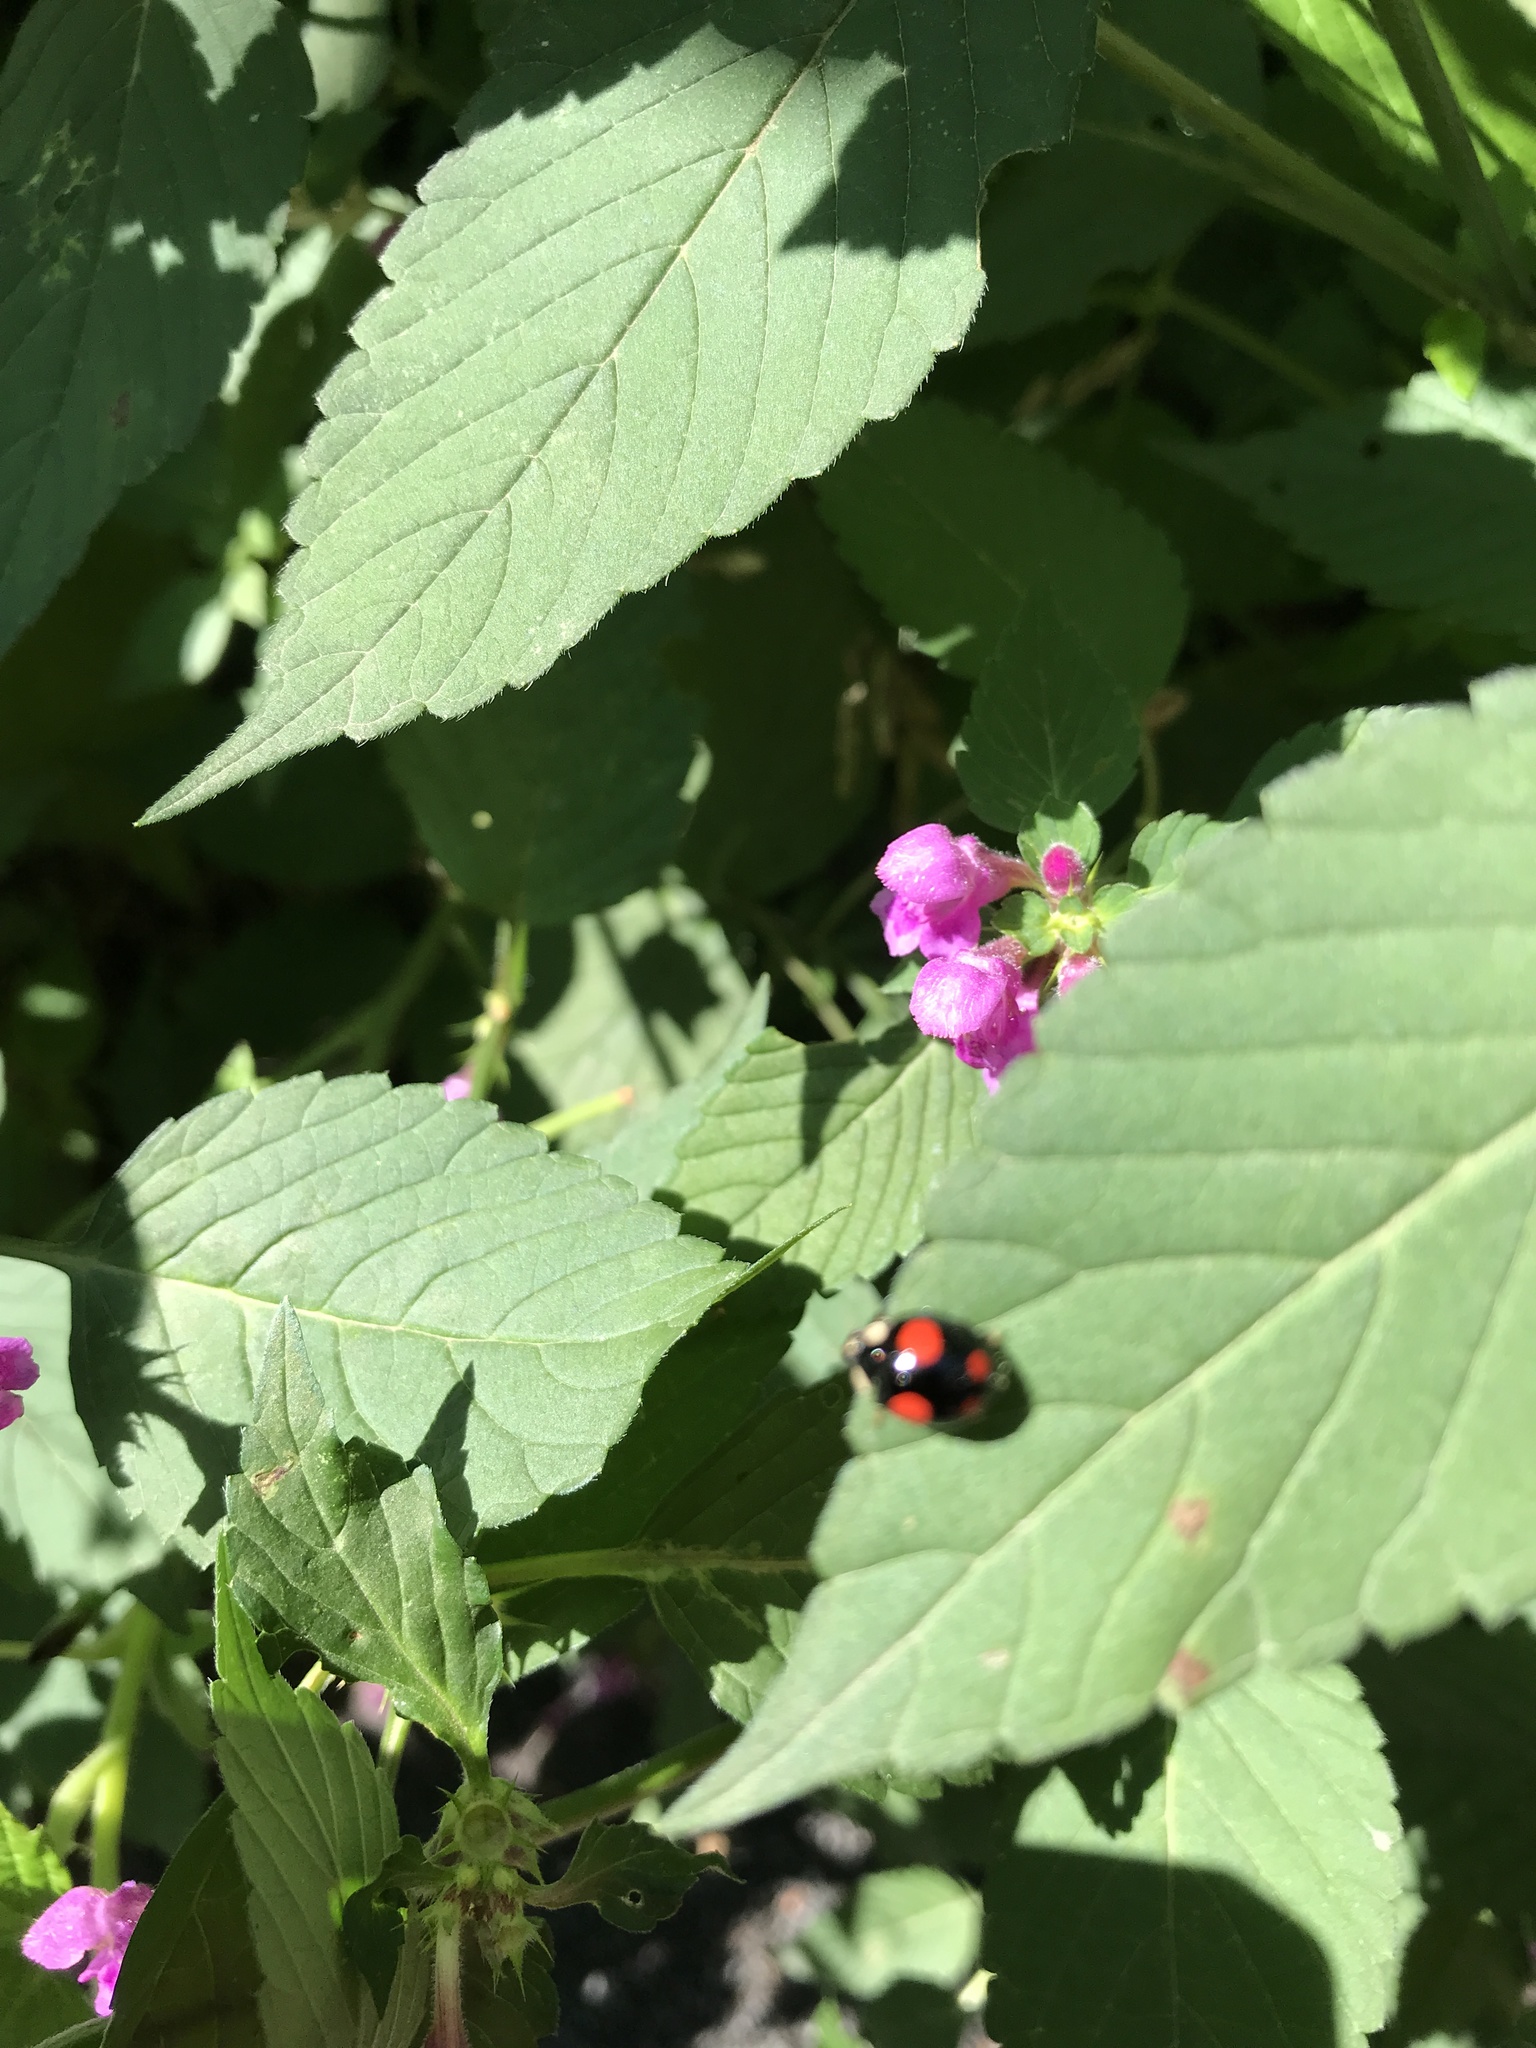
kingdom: Animalia
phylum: Arthropoda
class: Insecta
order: Coleoptera
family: Coccinellidae
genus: Harmonia
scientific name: Harmonia axyridis
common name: Harlequin ladybird
